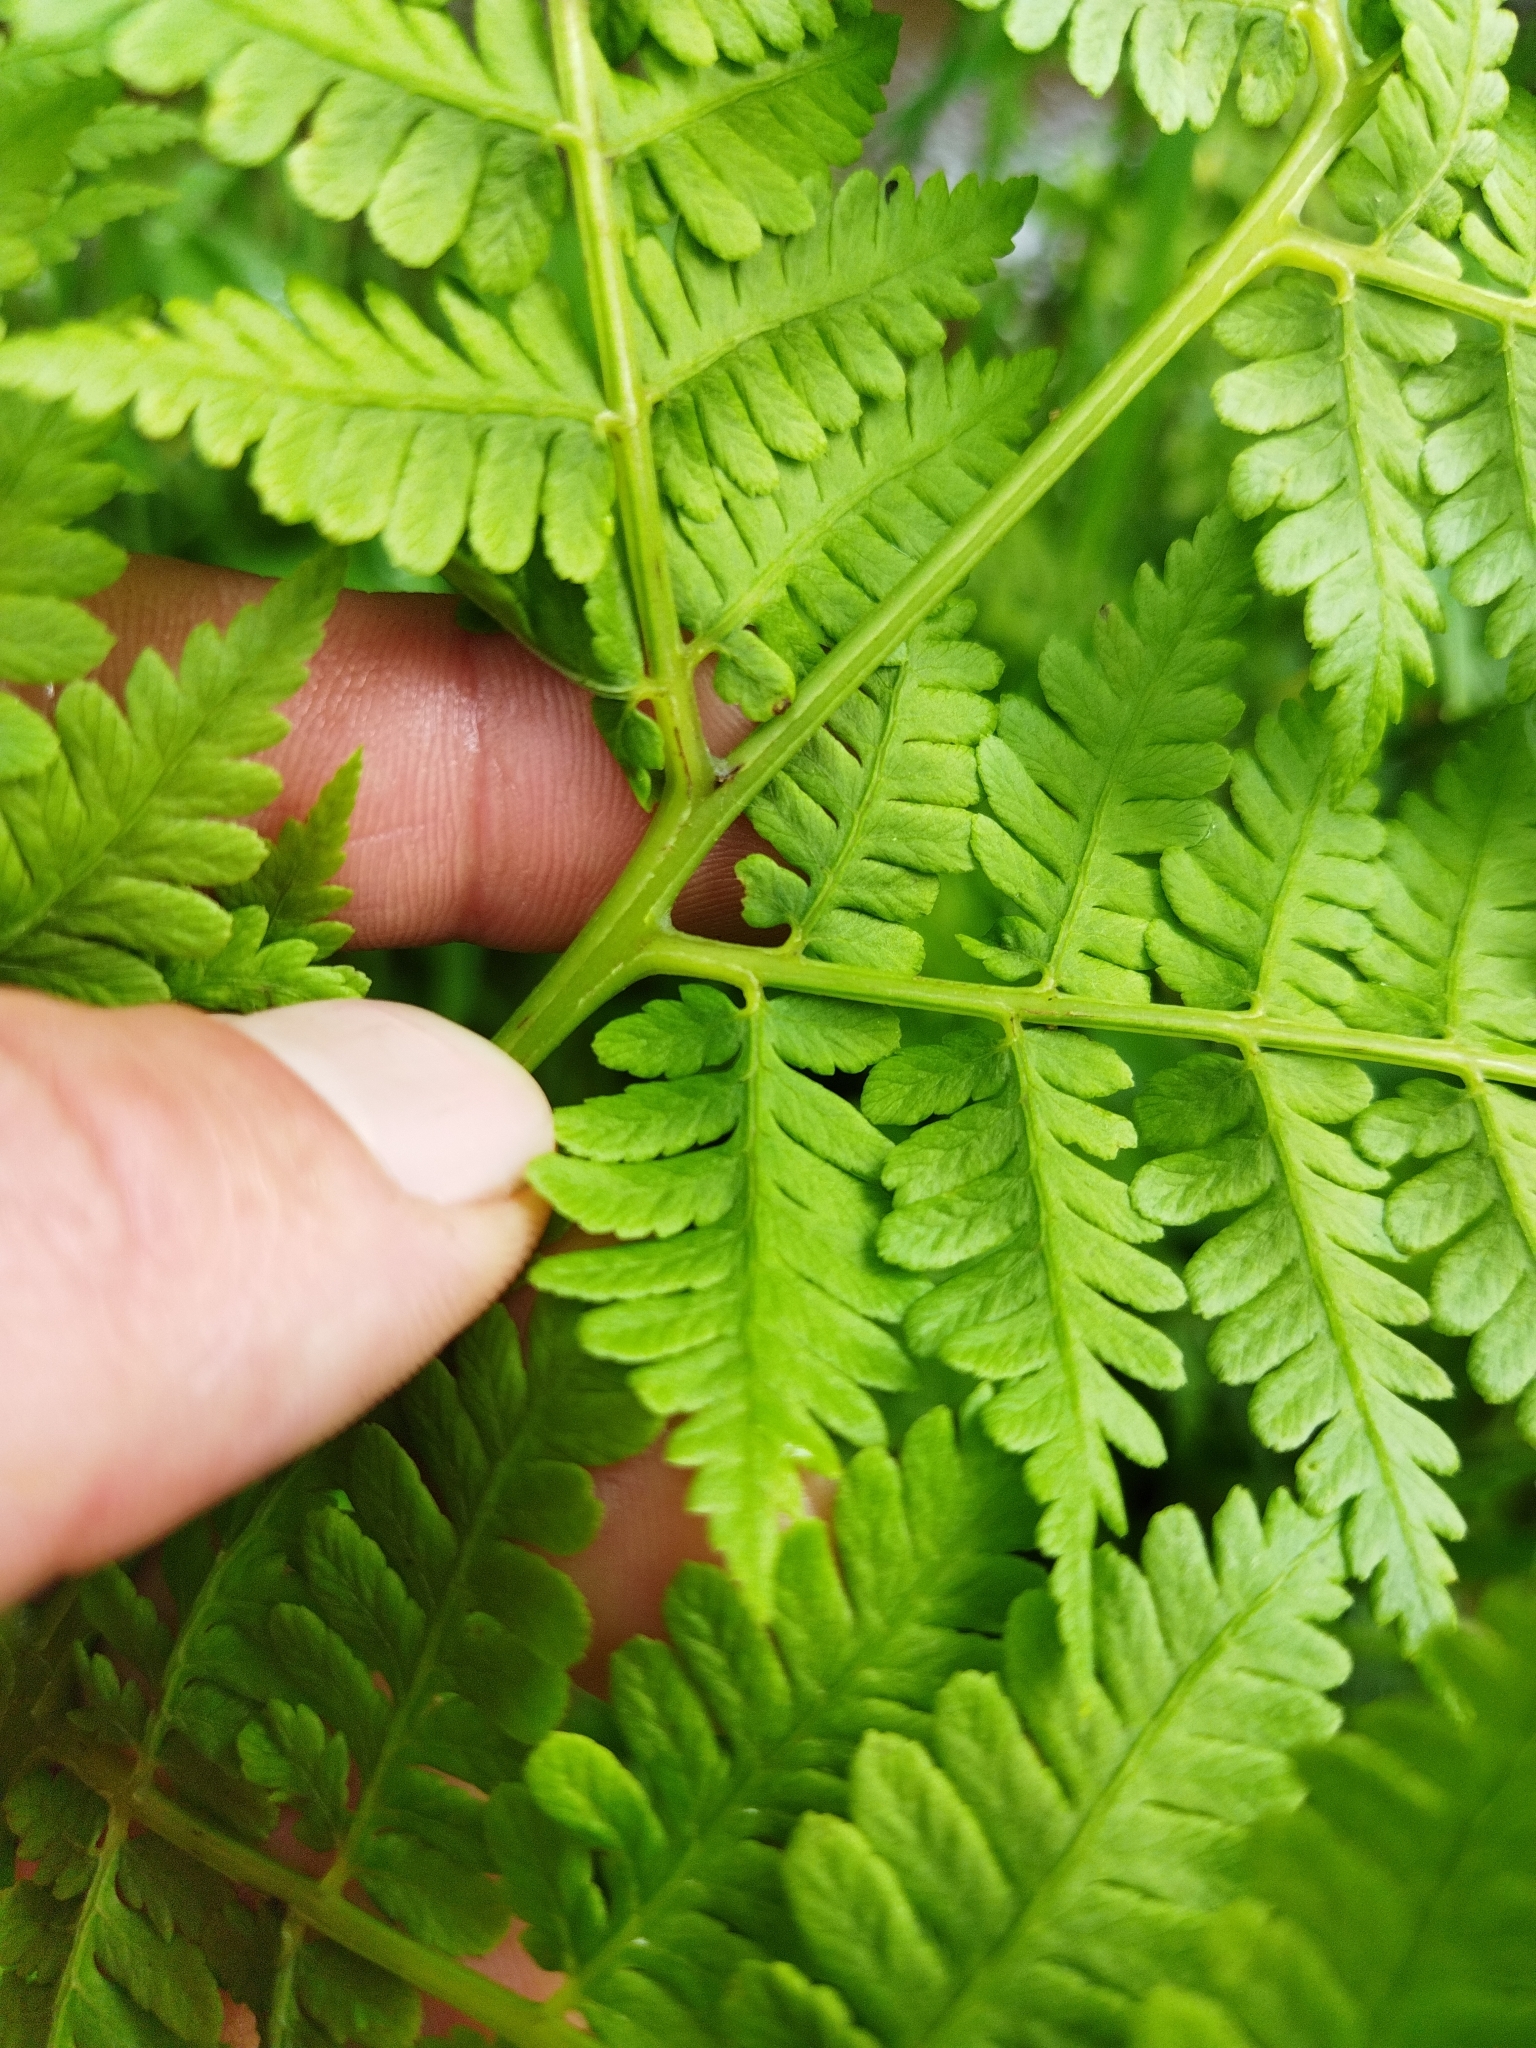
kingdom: Plantae
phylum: Tracheophyta
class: Polypodiopsida
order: Polypodiales
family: Athyriaceae
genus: Diplazium
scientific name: Diplazium australe
